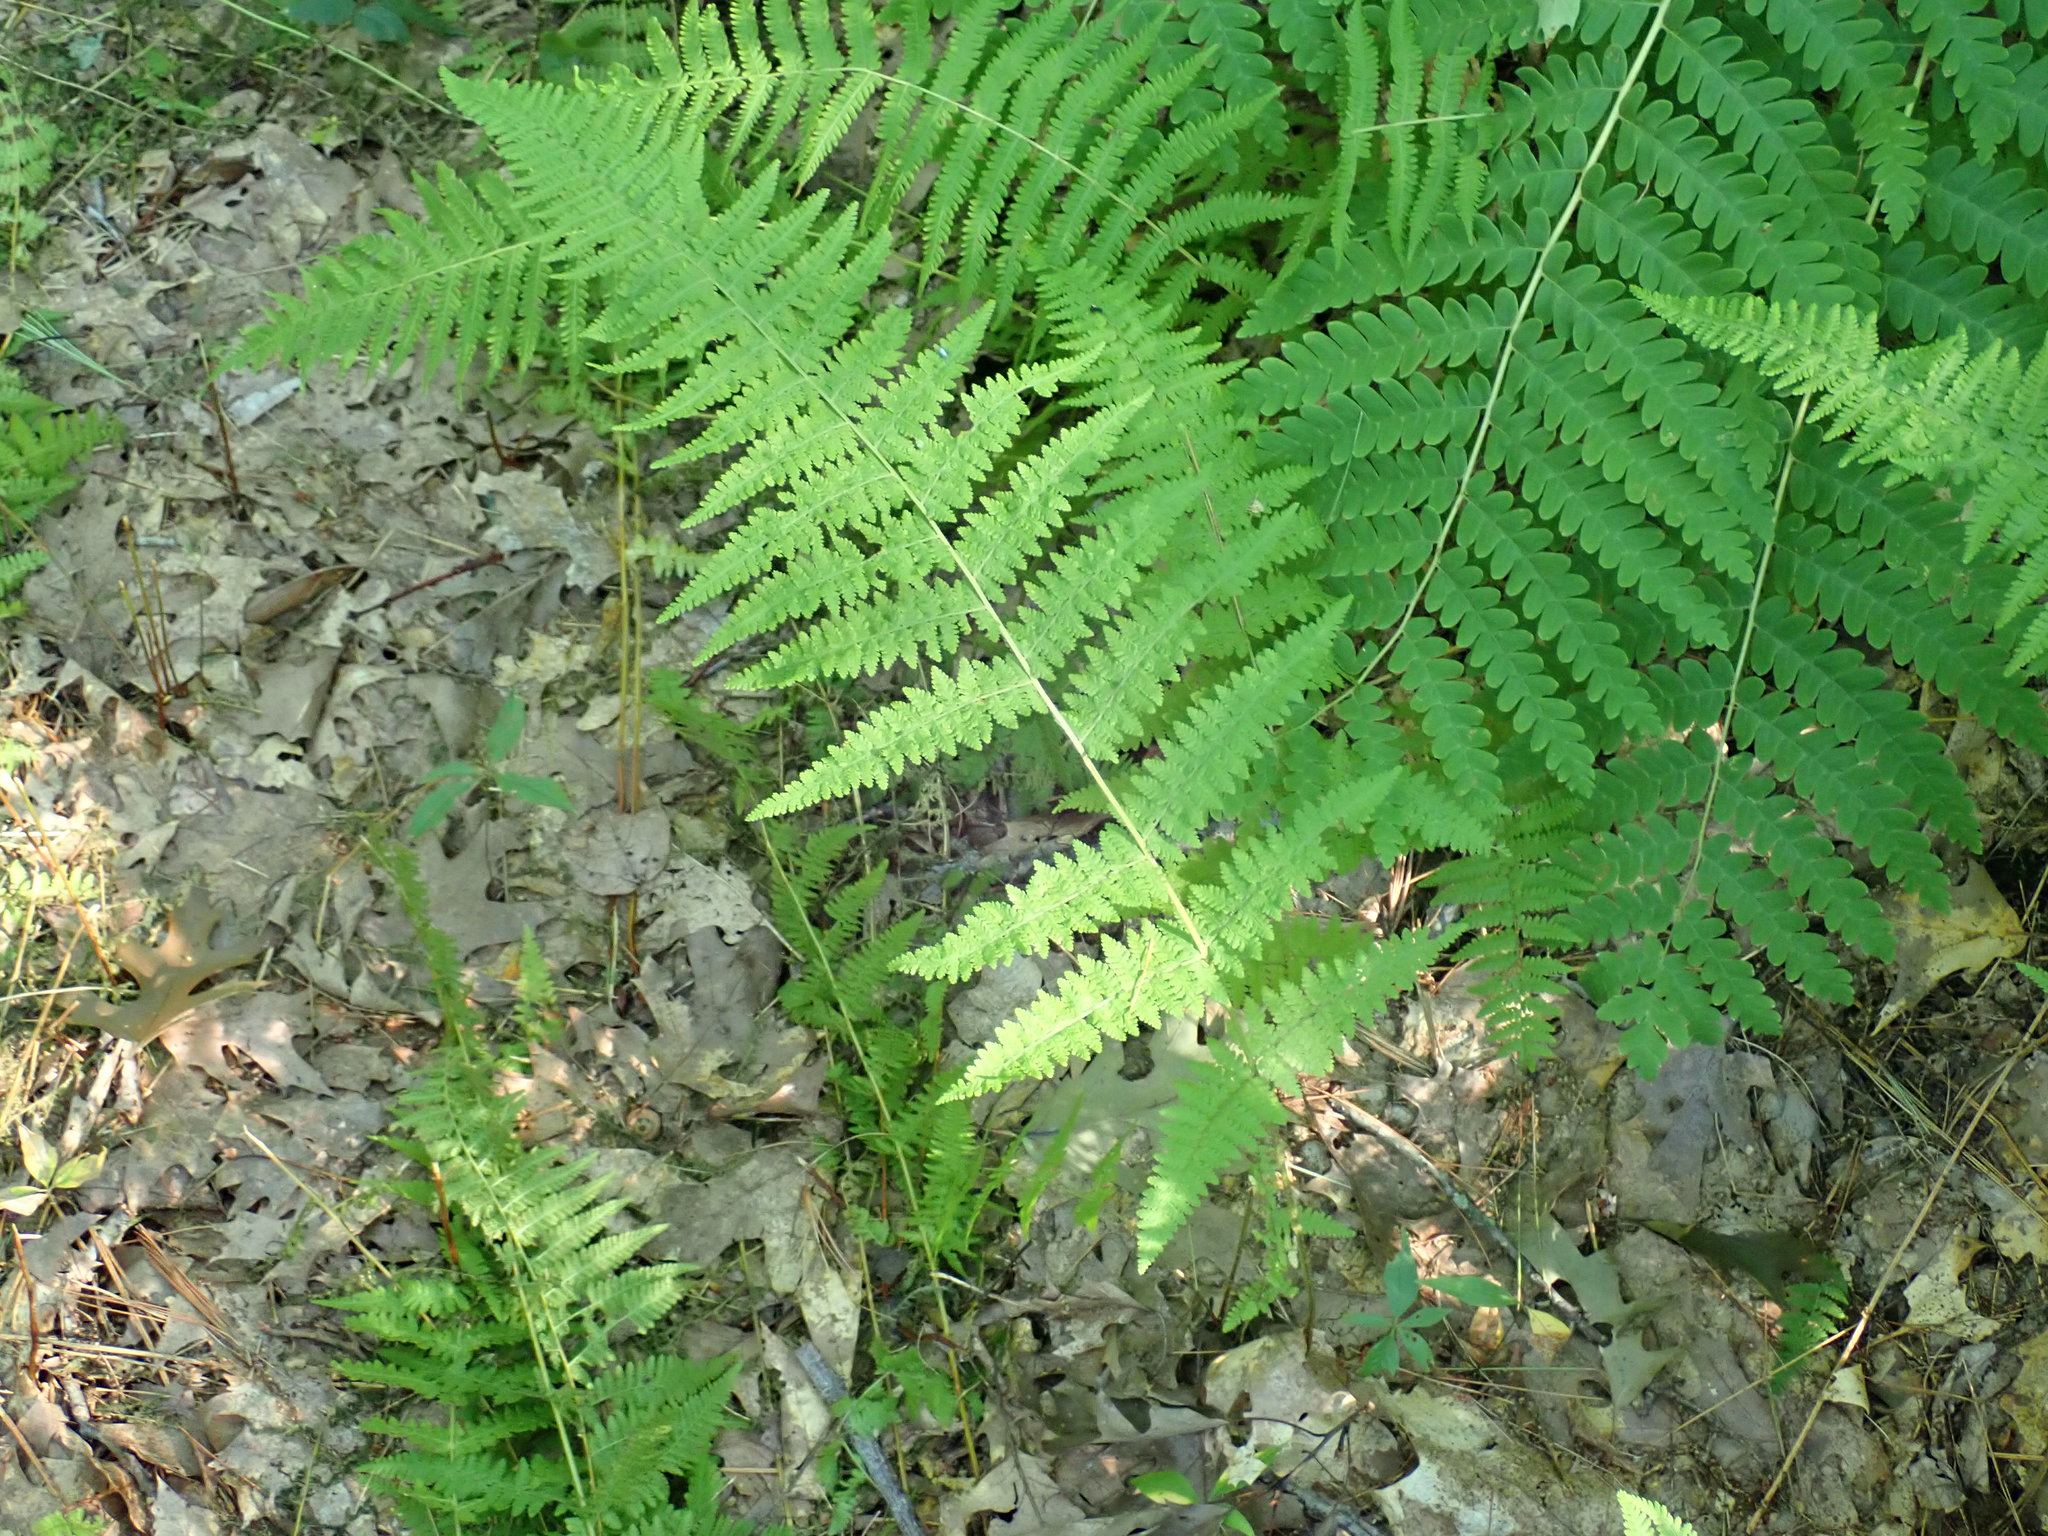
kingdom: Plantae
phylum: Tracheophyta
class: Polypodiopsida
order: Polypodiales
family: Dennstaedtiaceae
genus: Sitobolium
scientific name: Sitobolium punctilobum
